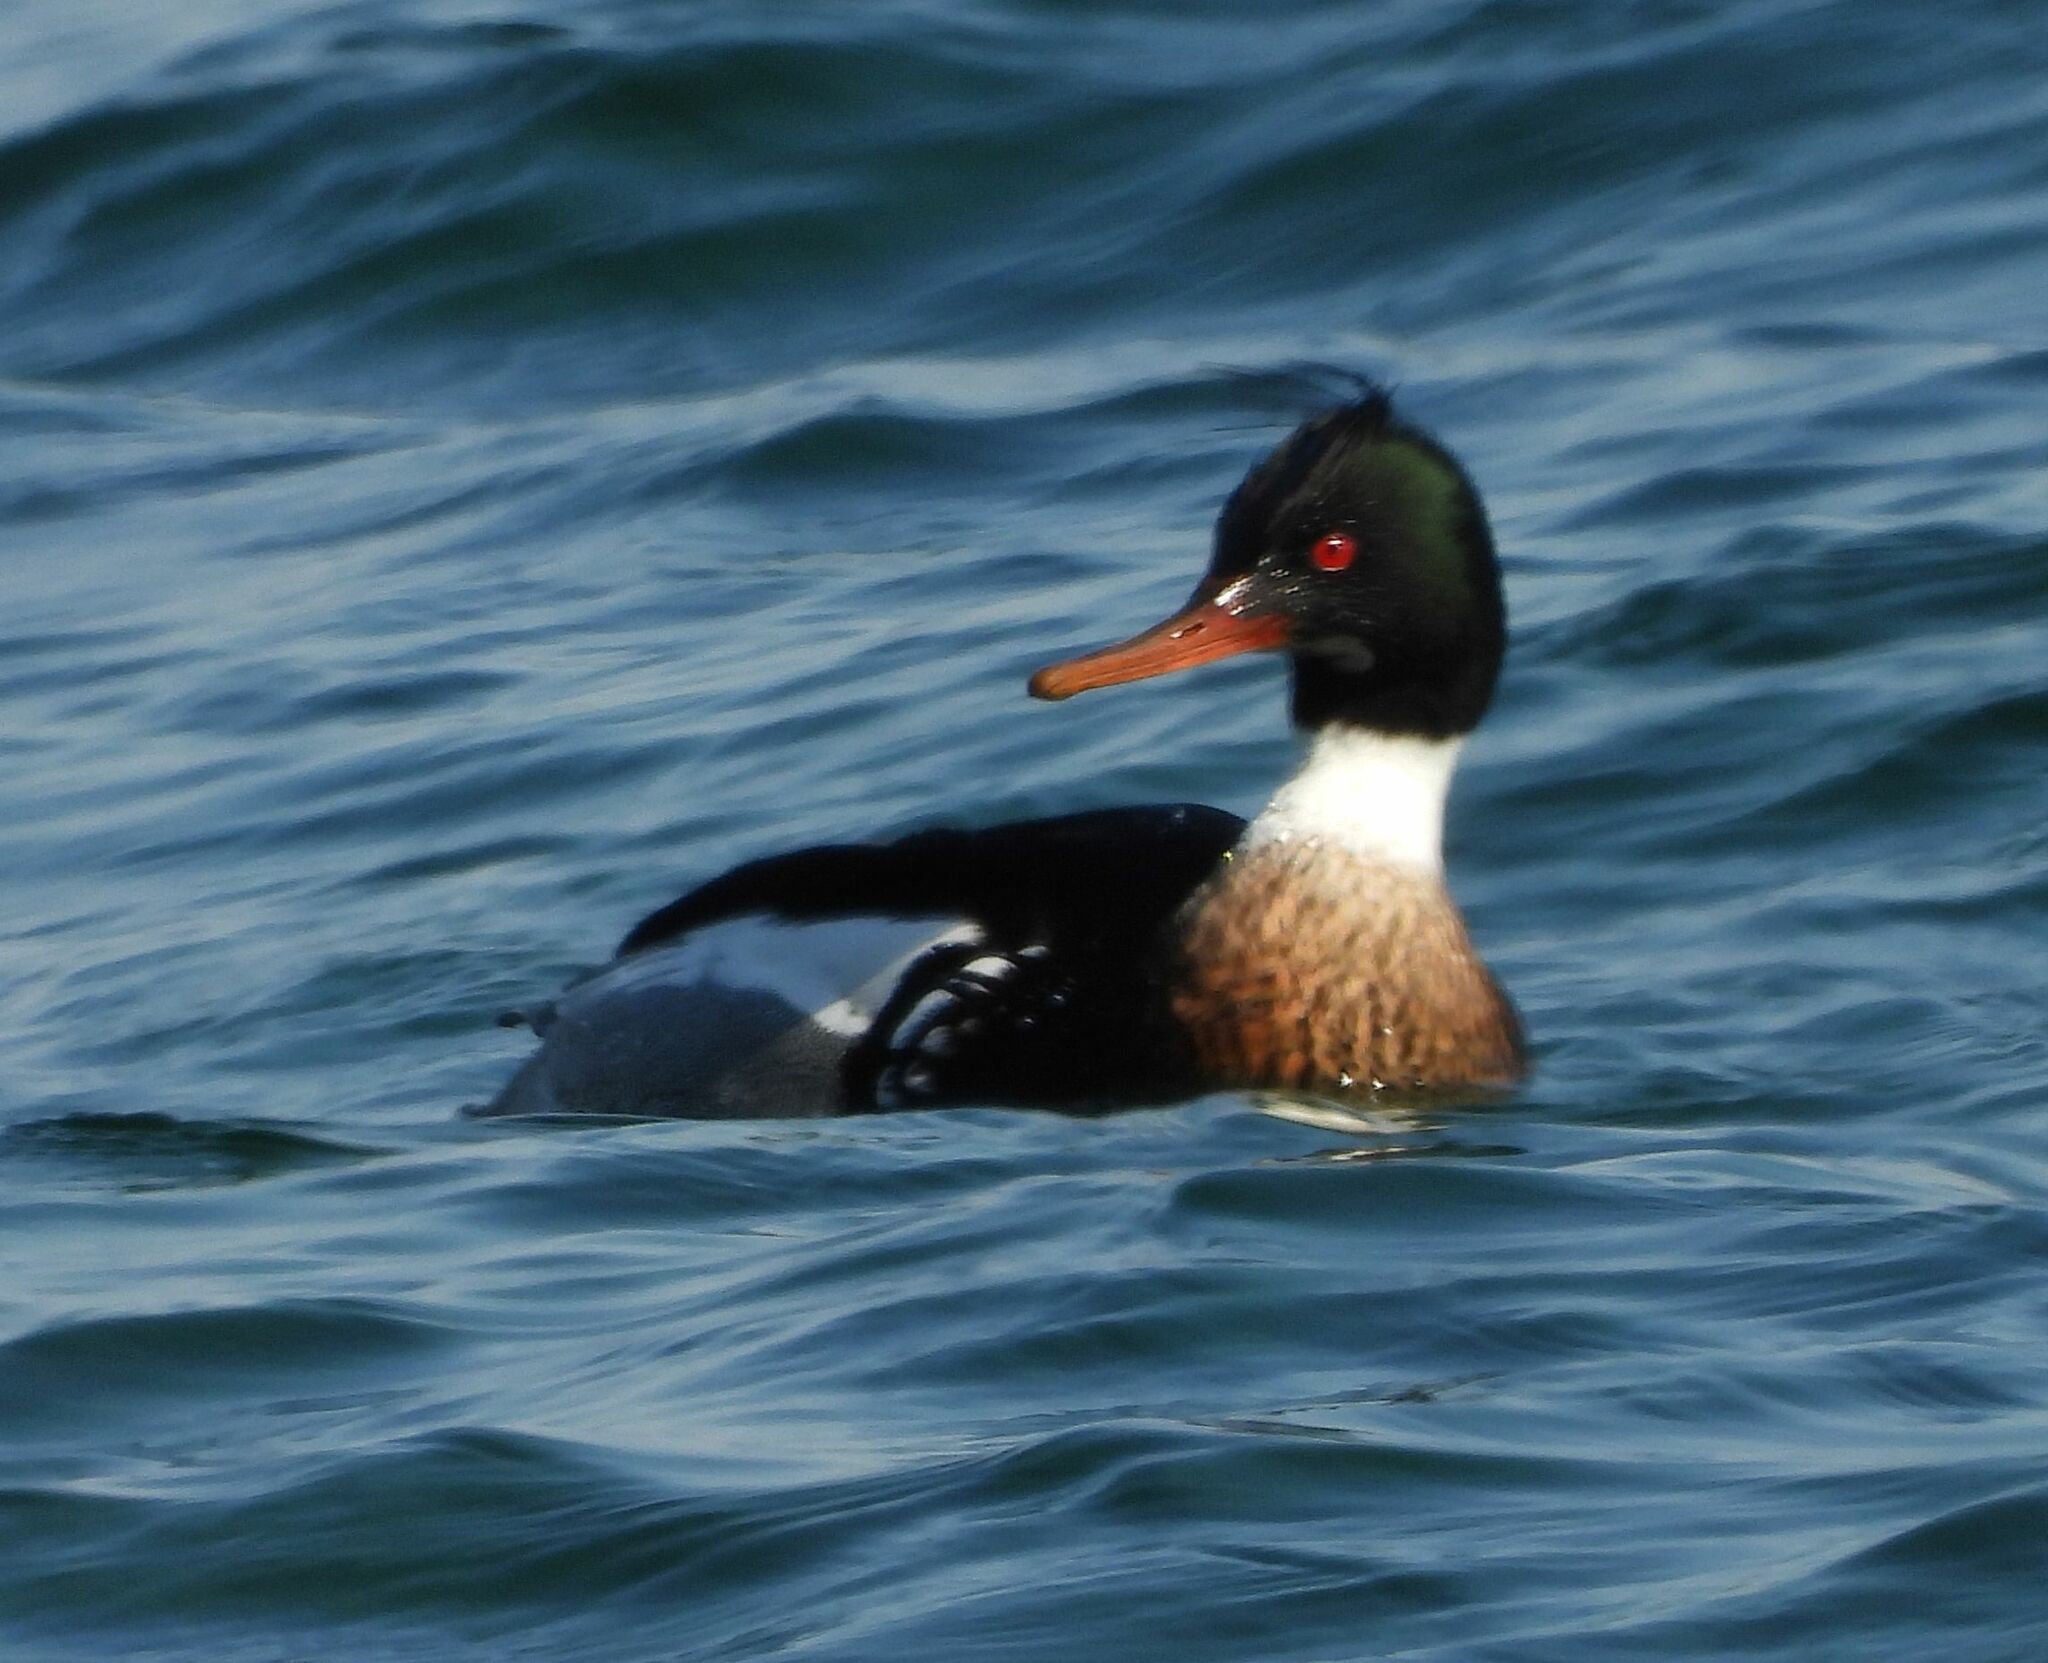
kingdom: Animalia
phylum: Chordata
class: Aves
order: Anseriformes
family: Anatidae
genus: Mergus
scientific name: Mergus serrator
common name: Red-breasted merganser
